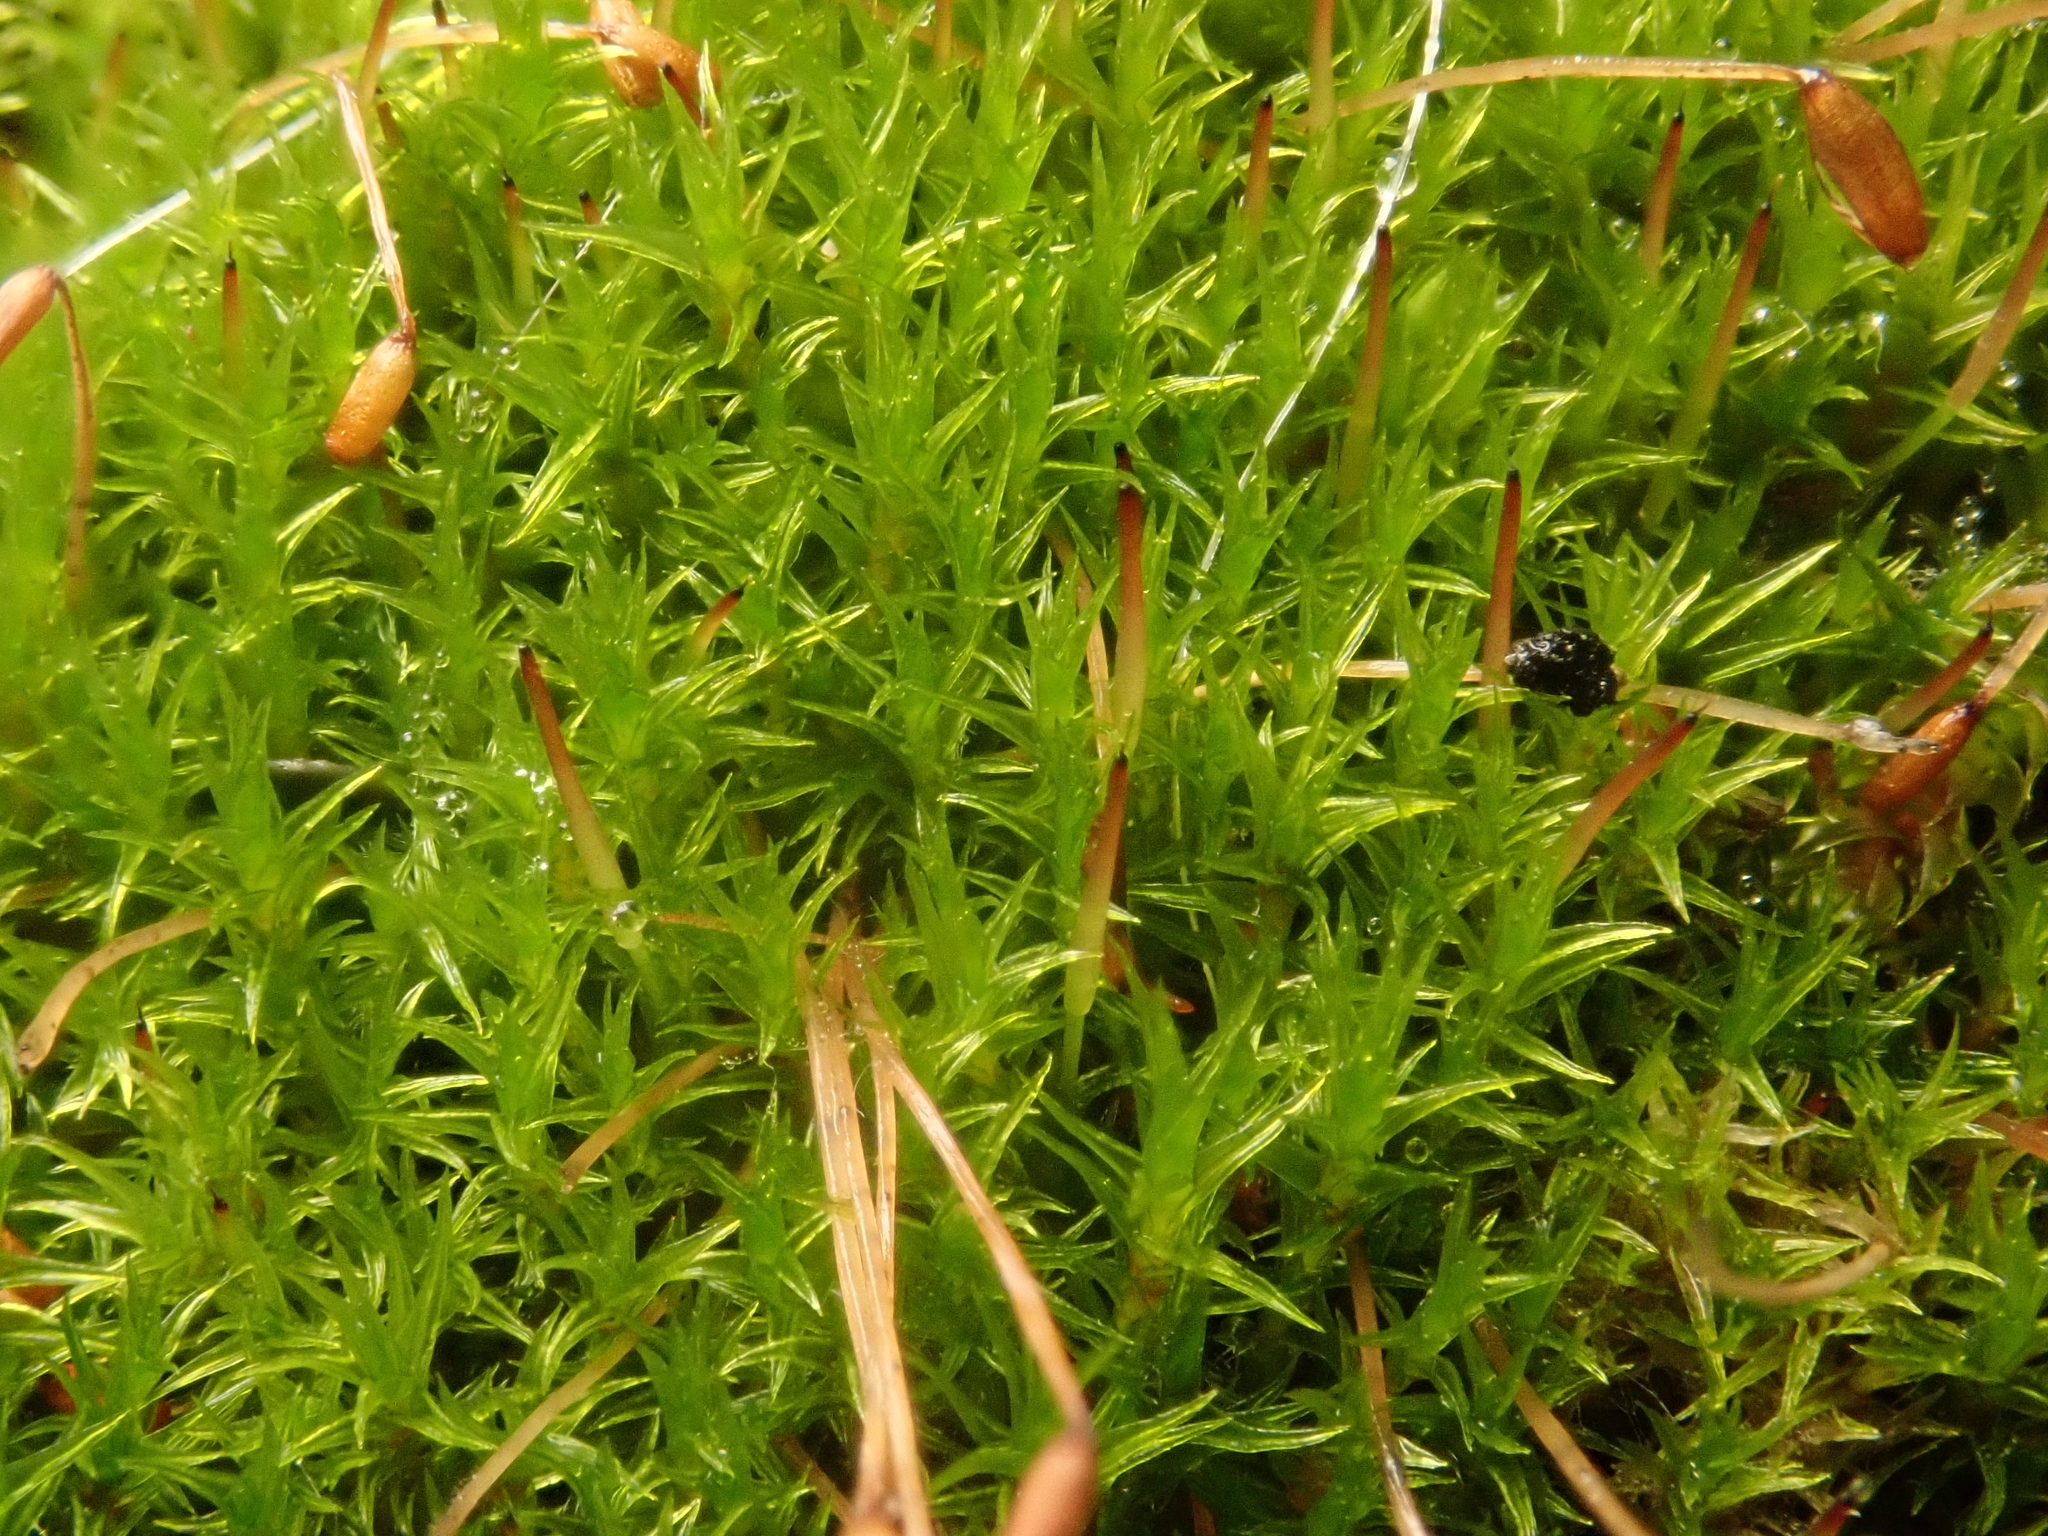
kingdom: Plantae
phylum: Bryophyta
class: Bryopsida
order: Dicranales
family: Ditrichaceae
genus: Ceratodon
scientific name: Ceratodon purpureus
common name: Redshank
